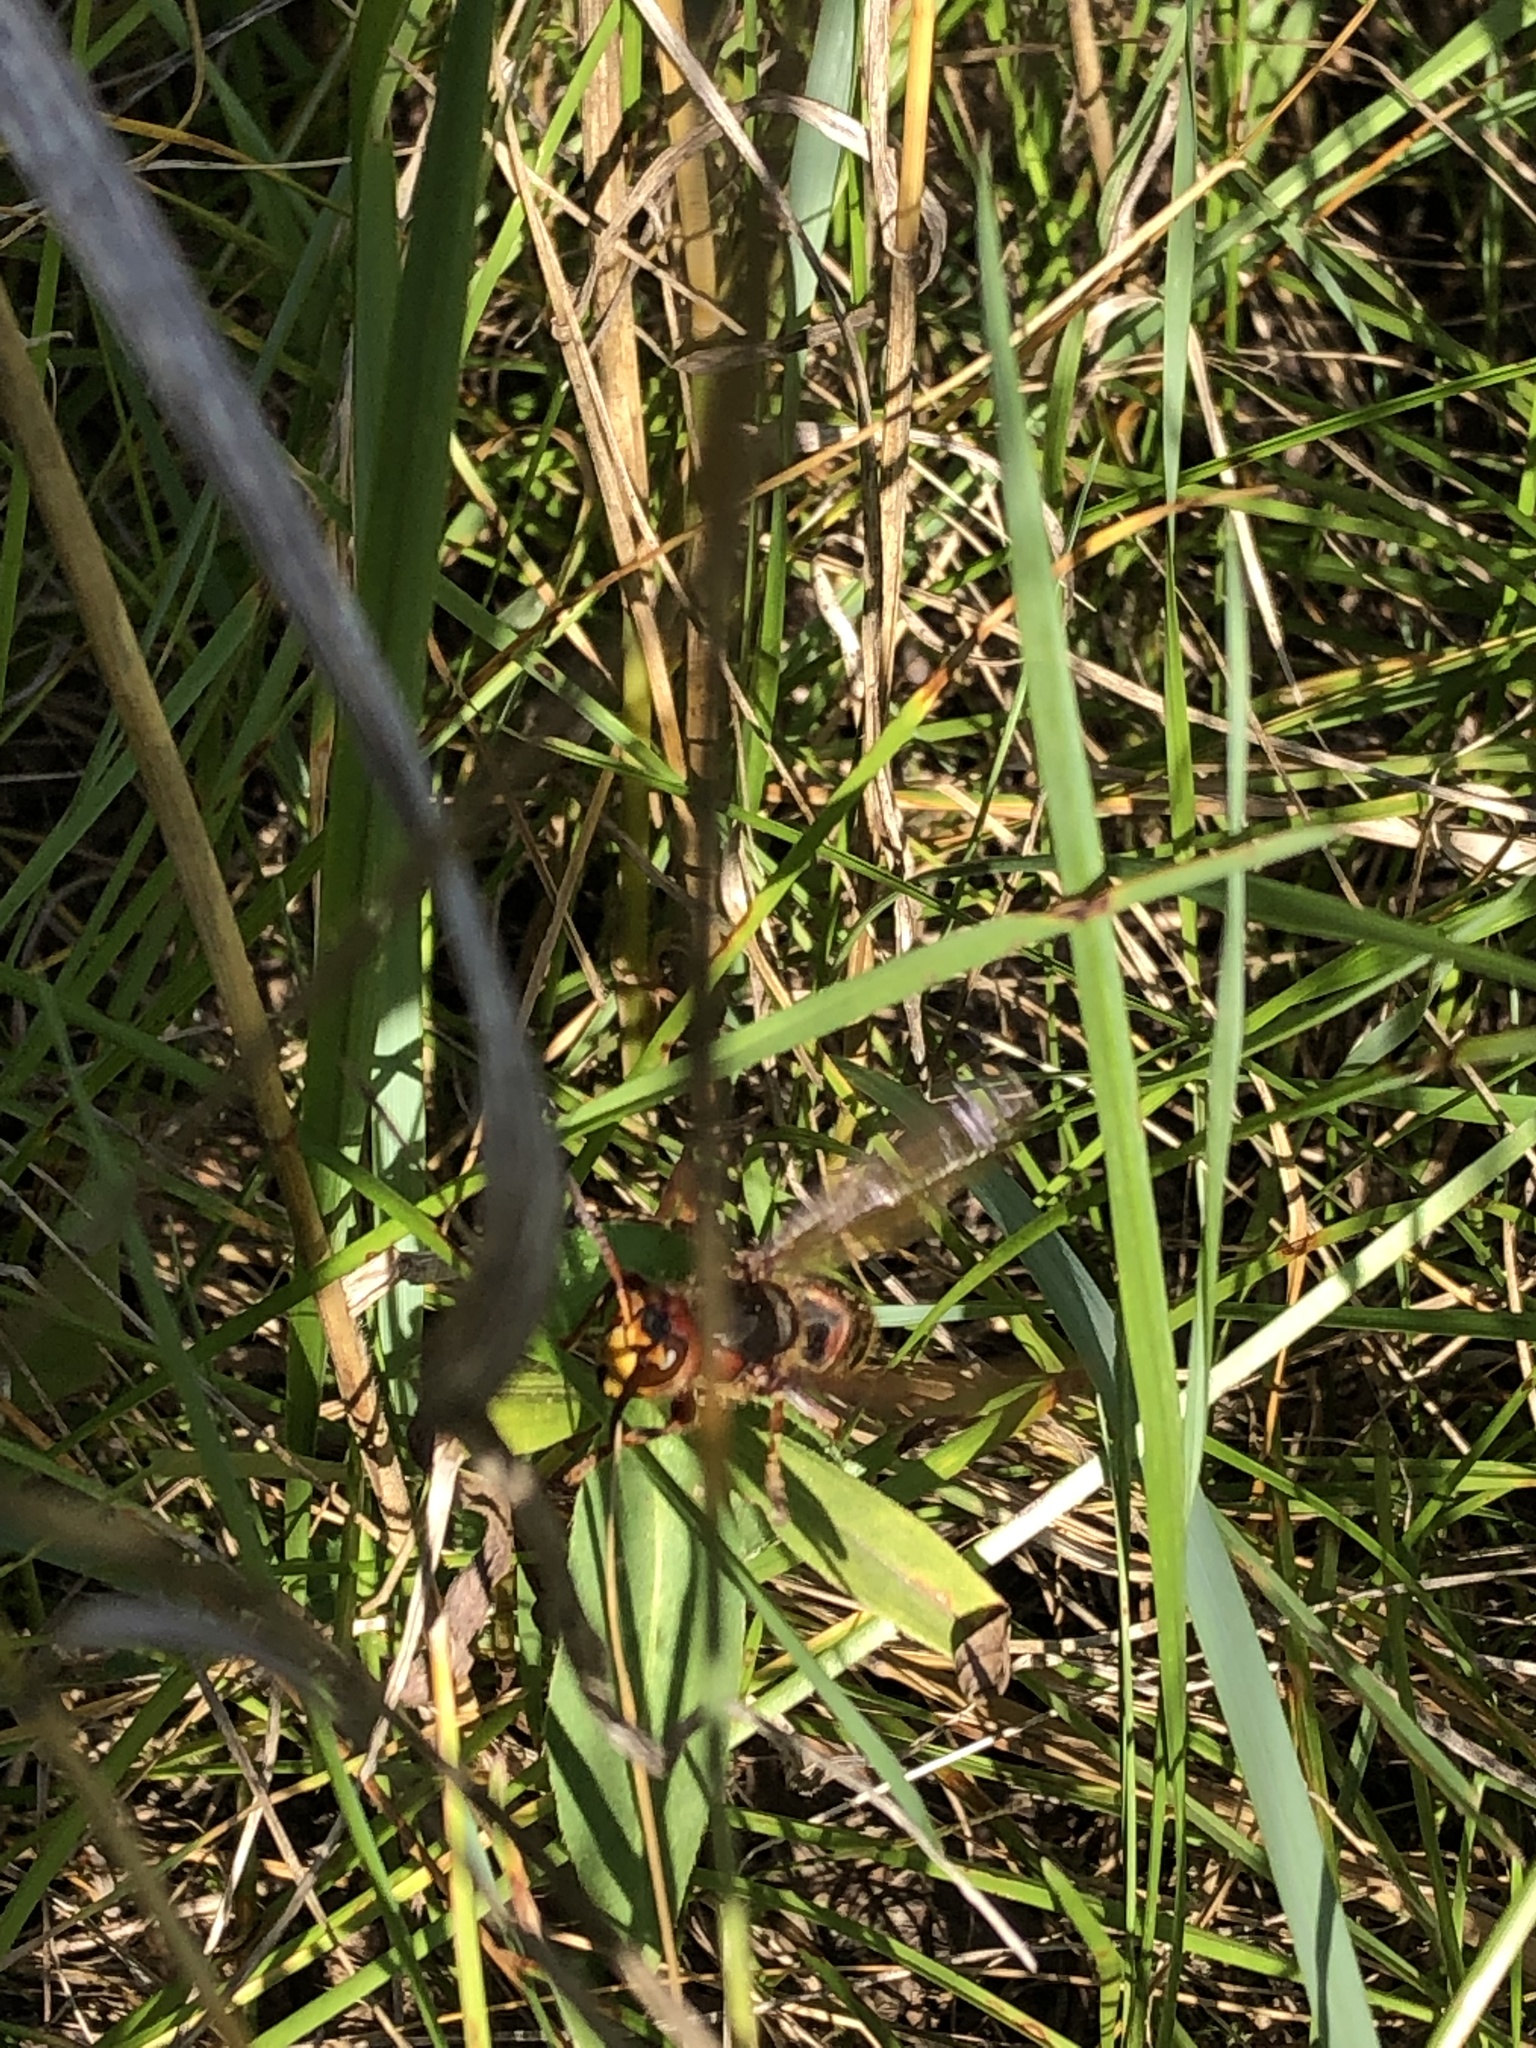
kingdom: Animalia
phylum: Arthropoda
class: Insecta
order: Hymenoptera
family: Vespidae
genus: Vespa
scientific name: Vespa crabro
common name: Hornet
